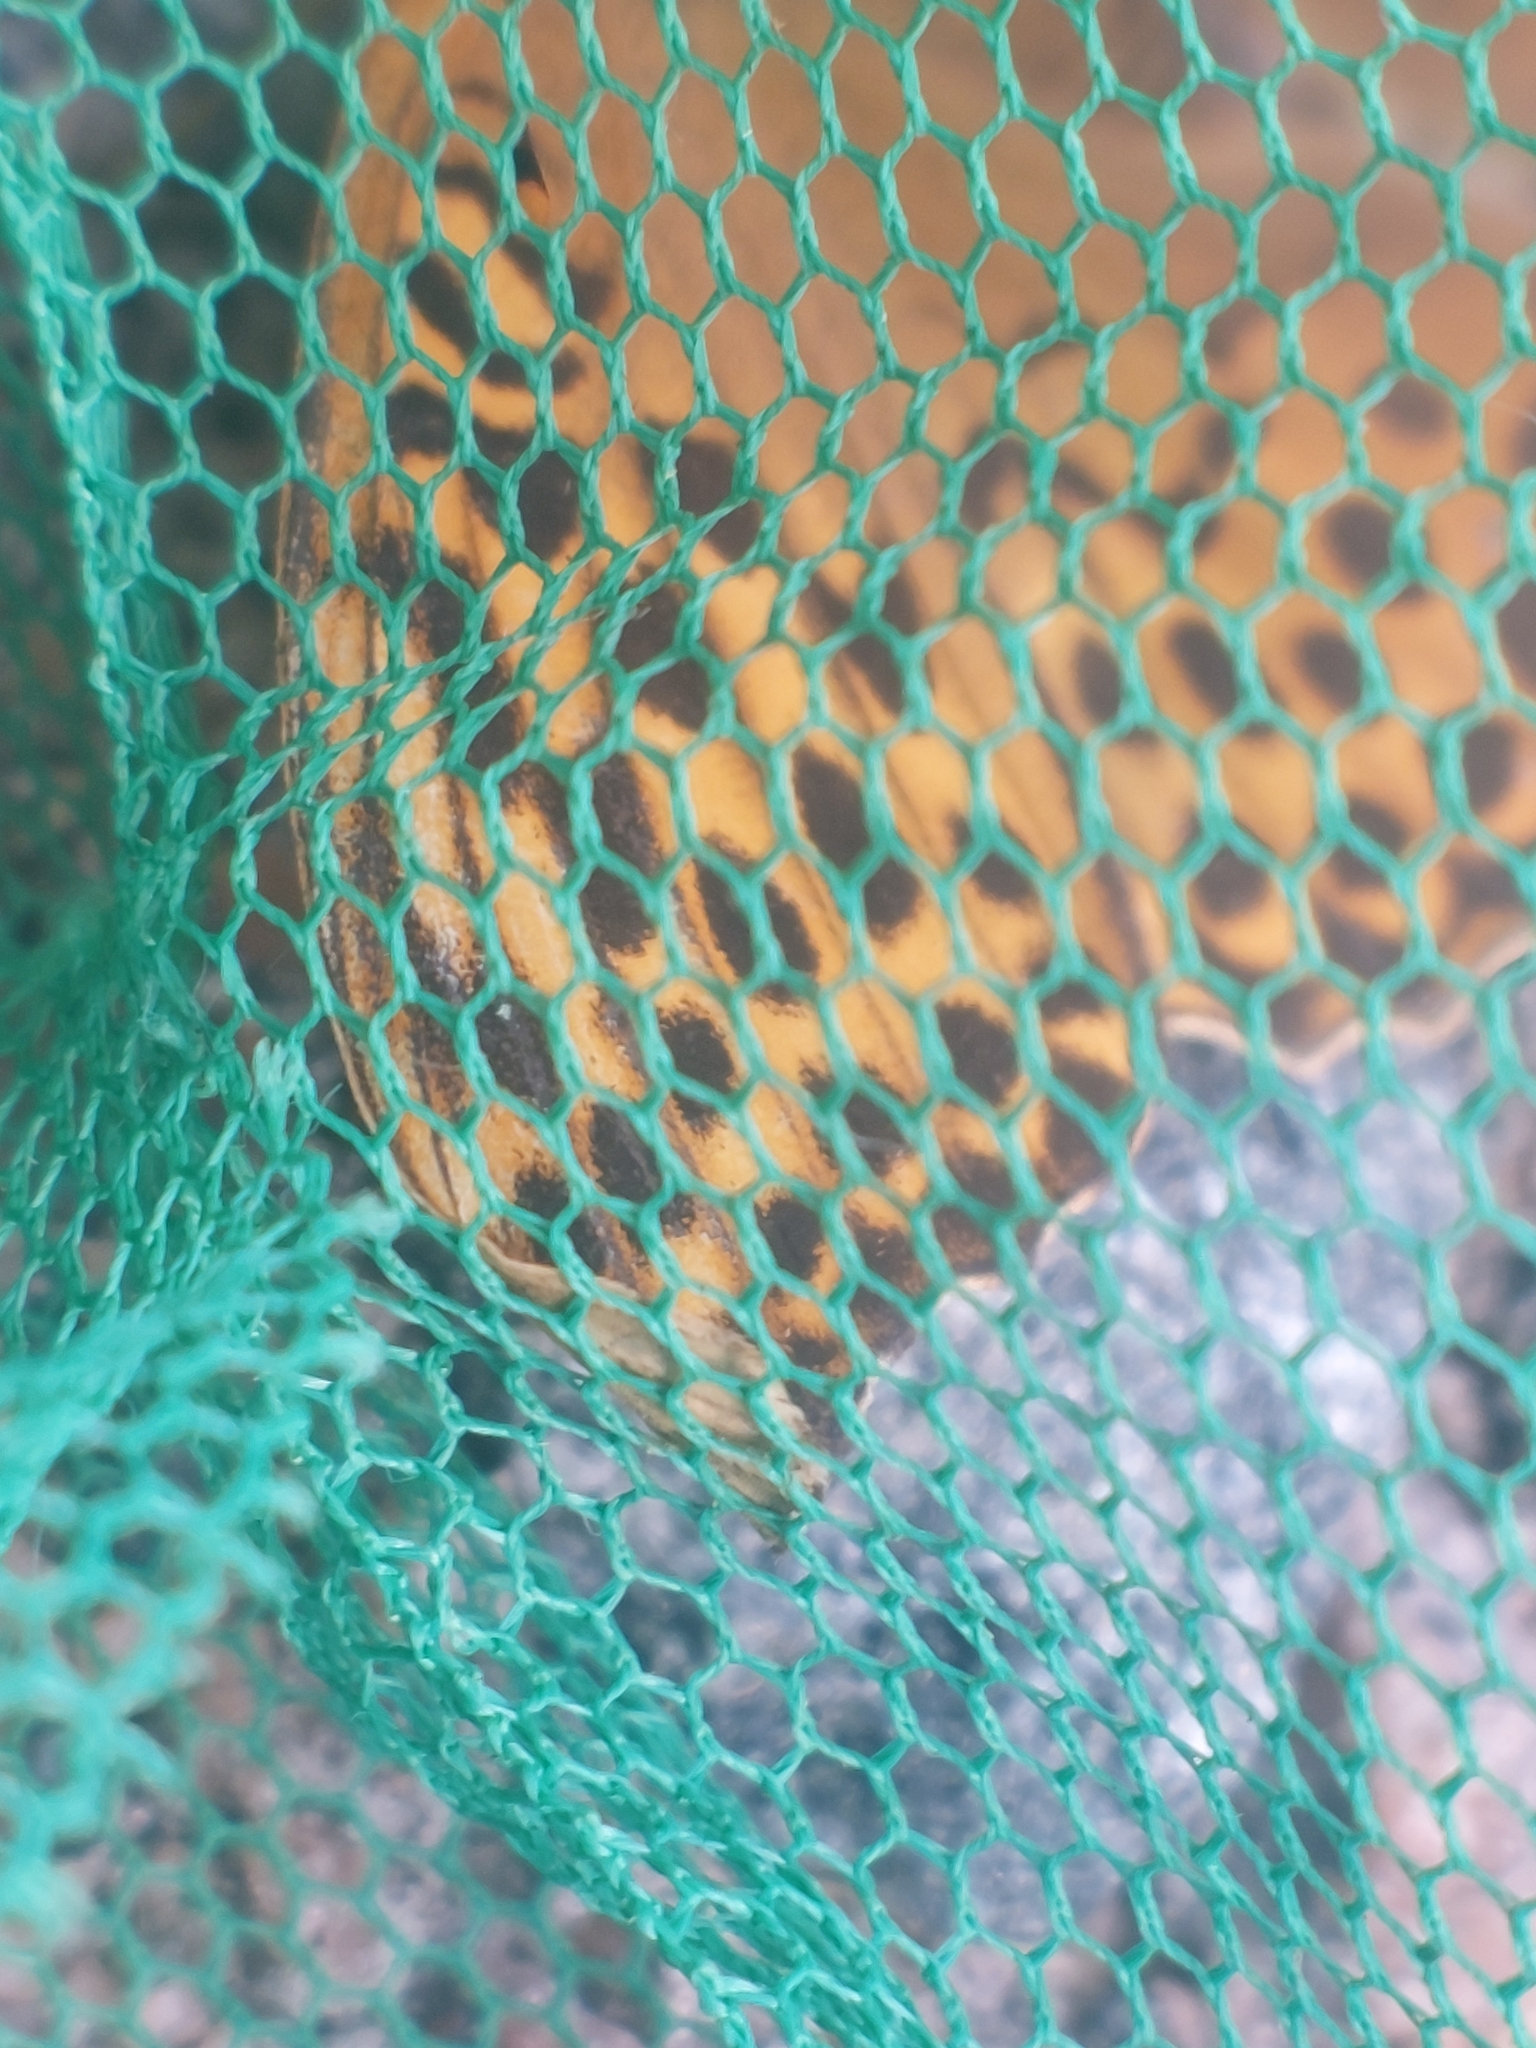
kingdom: Animalia
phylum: Arthropoda
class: Insecta
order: Lepidoptera
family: Nymphalidae
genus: Argynnis
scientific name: Argynnis paphia
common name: Silver-washed fritillary
